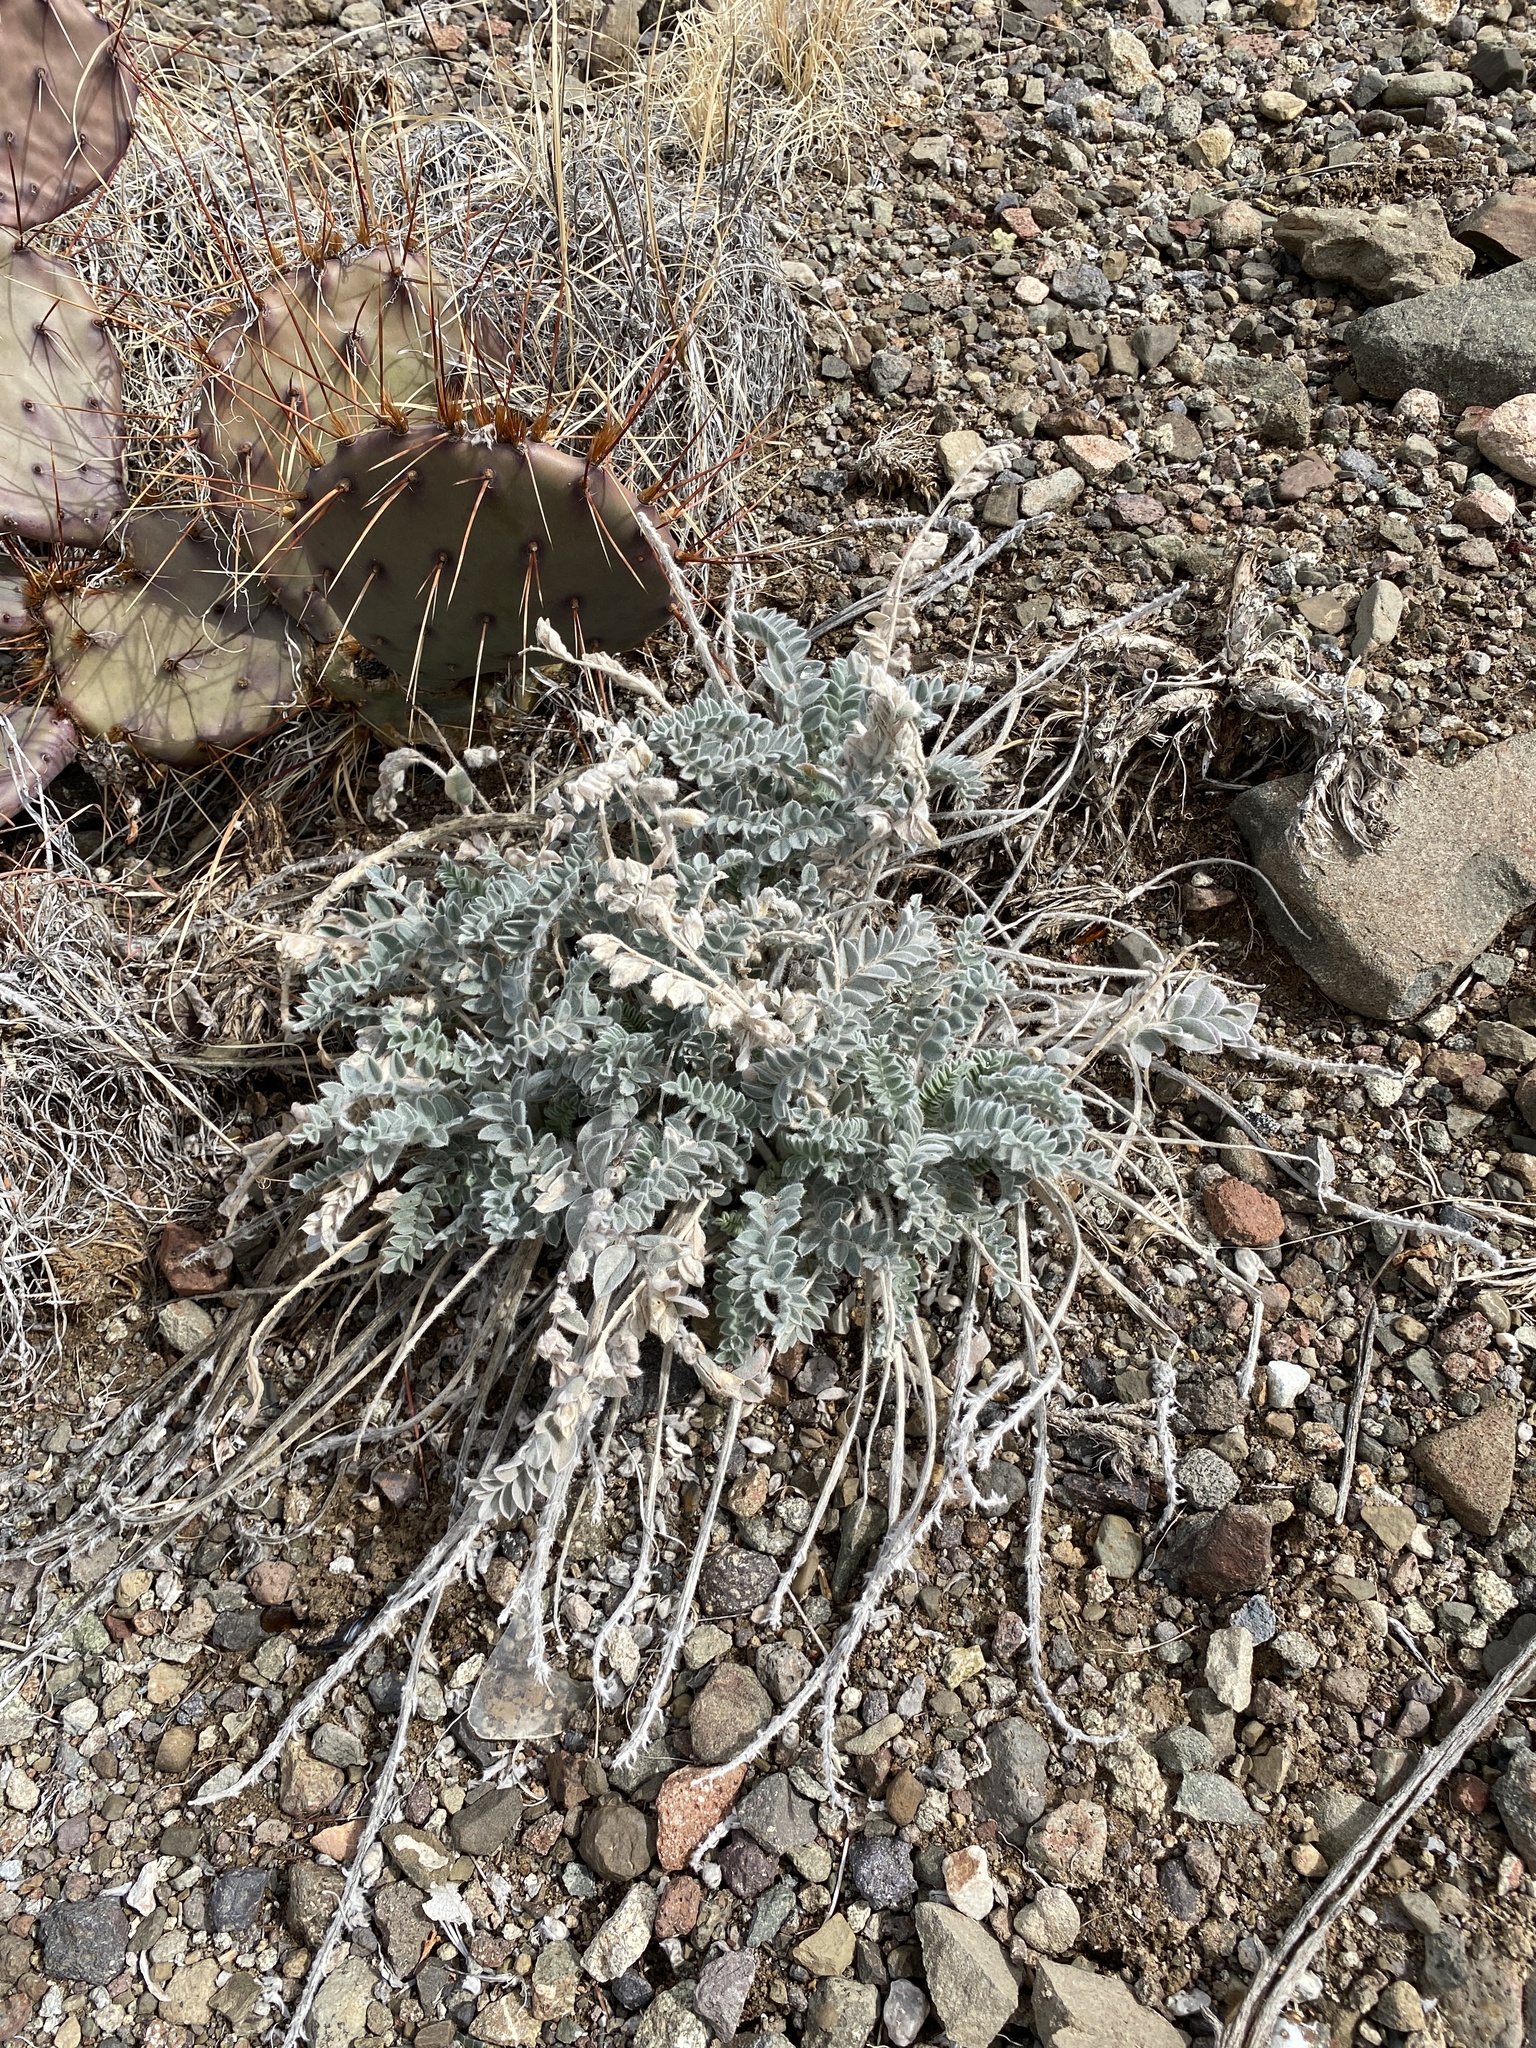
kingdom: Plantae
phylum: Tracheophyta
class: Magnoliopsida
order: Fabales
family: Fabaceae
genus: Astragalus
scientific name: Astragalus mollissimus
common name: Woolly locoweed
